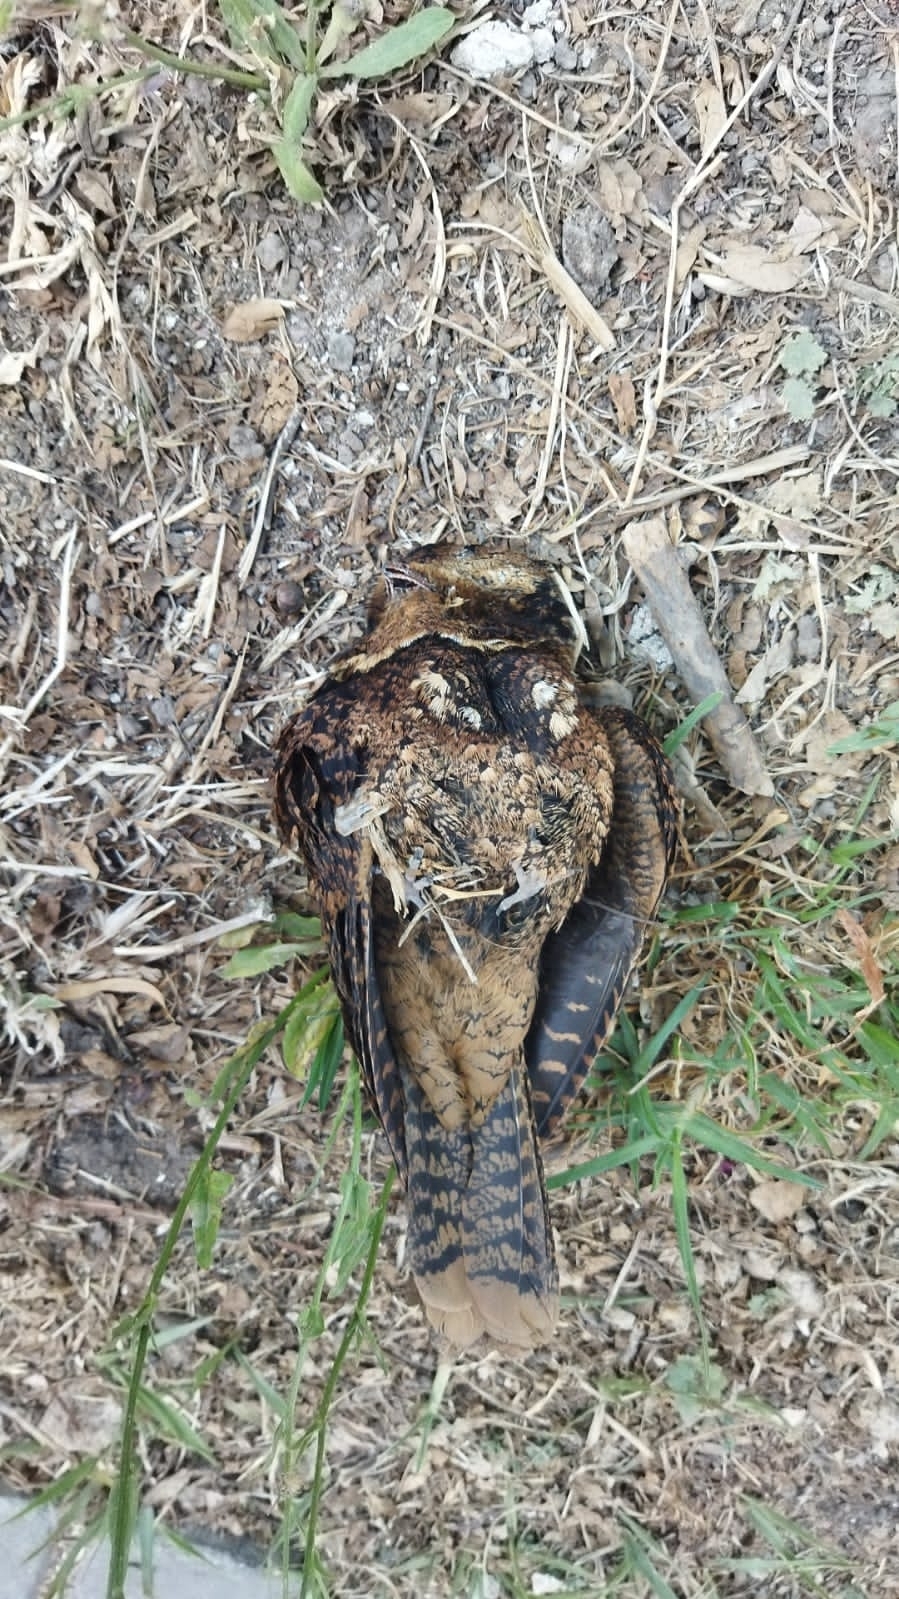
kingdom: Animalia
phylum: Chordata
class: Aves
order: Caprimulgiformes
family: Caprimulgidae
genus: Antrostomus
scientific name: Antrostomus rufus
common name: Rufous nightjar
